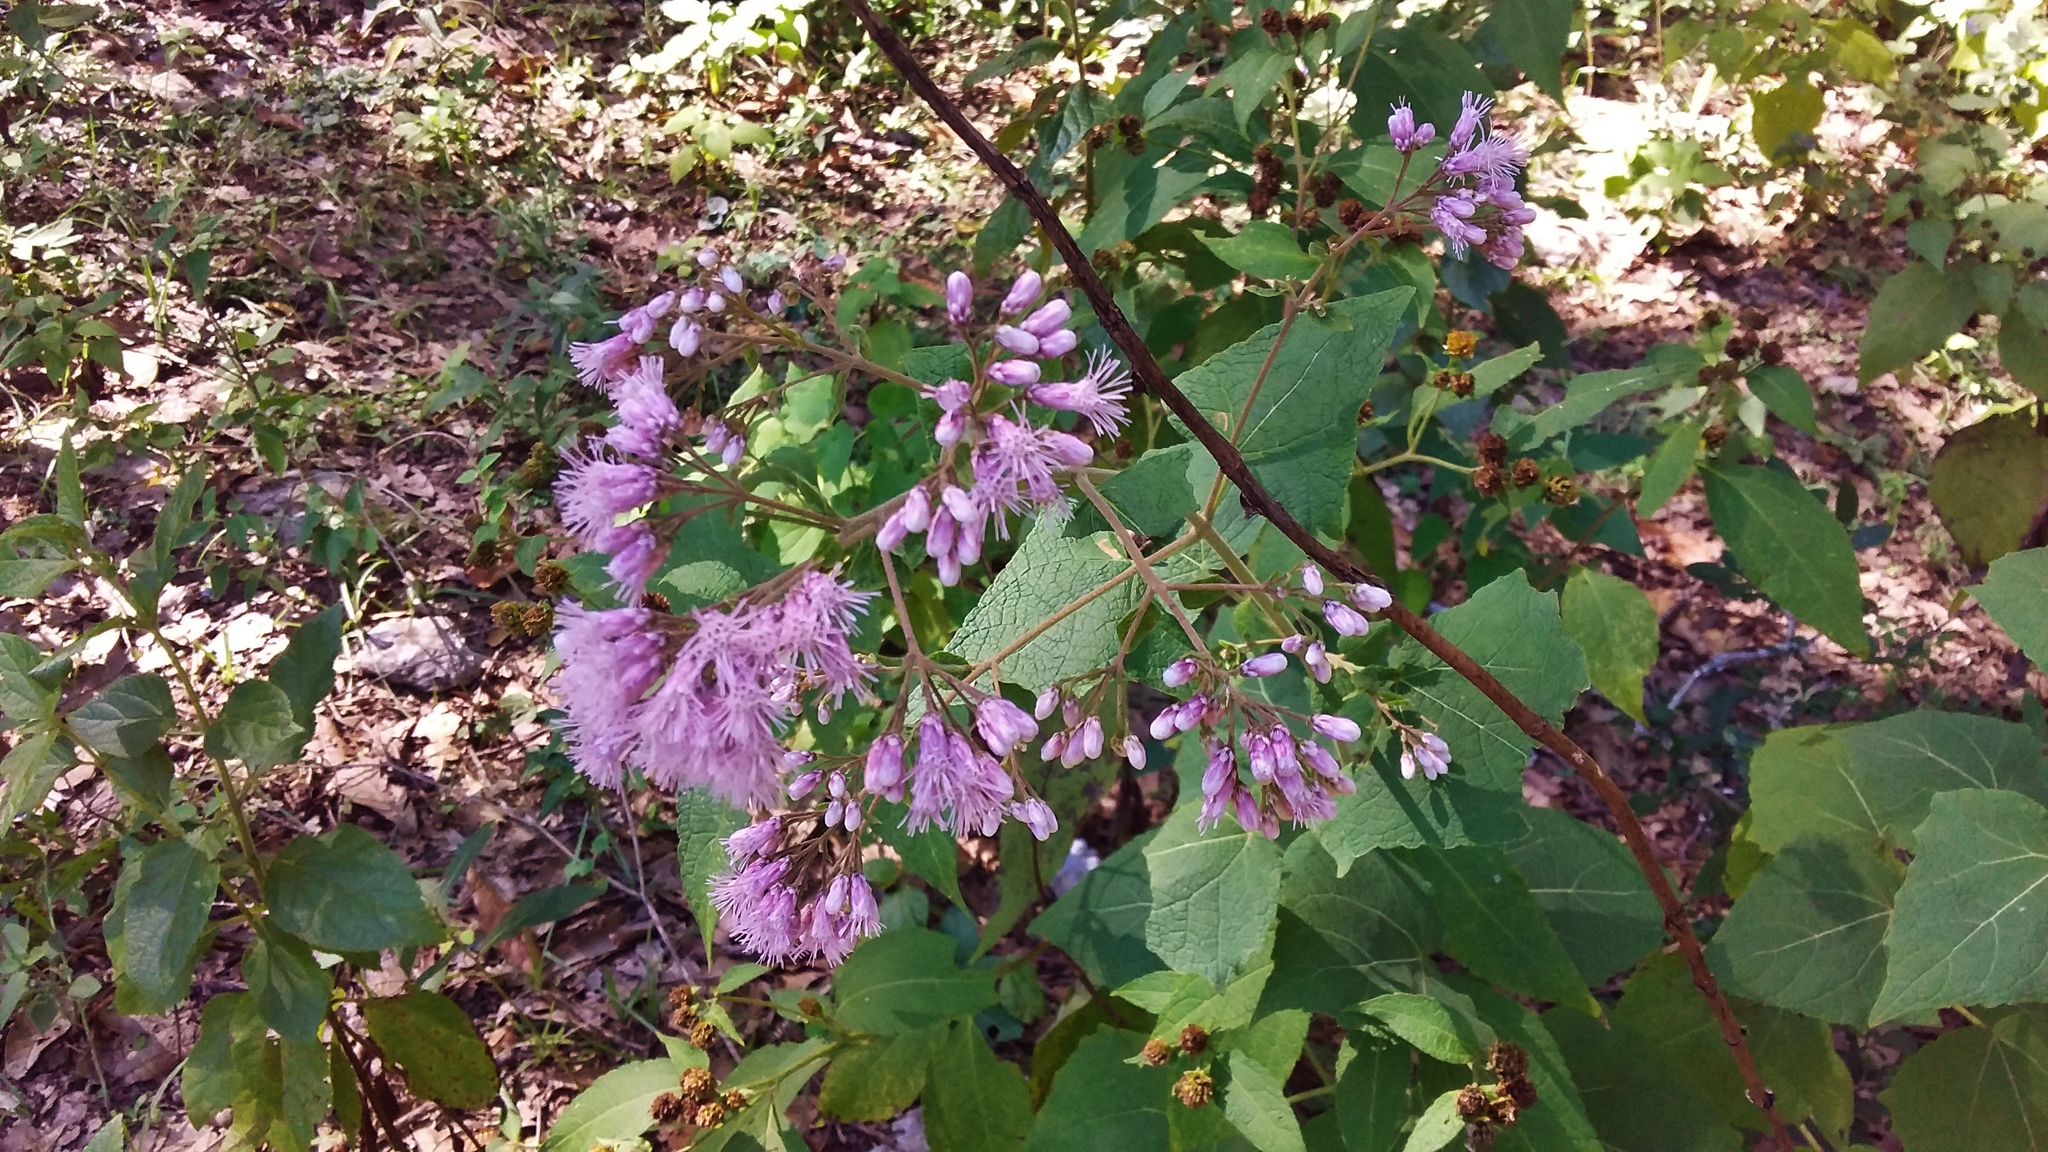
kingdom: Plantae
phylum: Tracheophyta
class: Magnoliopsida
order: Asterales
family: Asteraceae
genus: Peteravenia
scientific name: Peteravenia malvifolia
